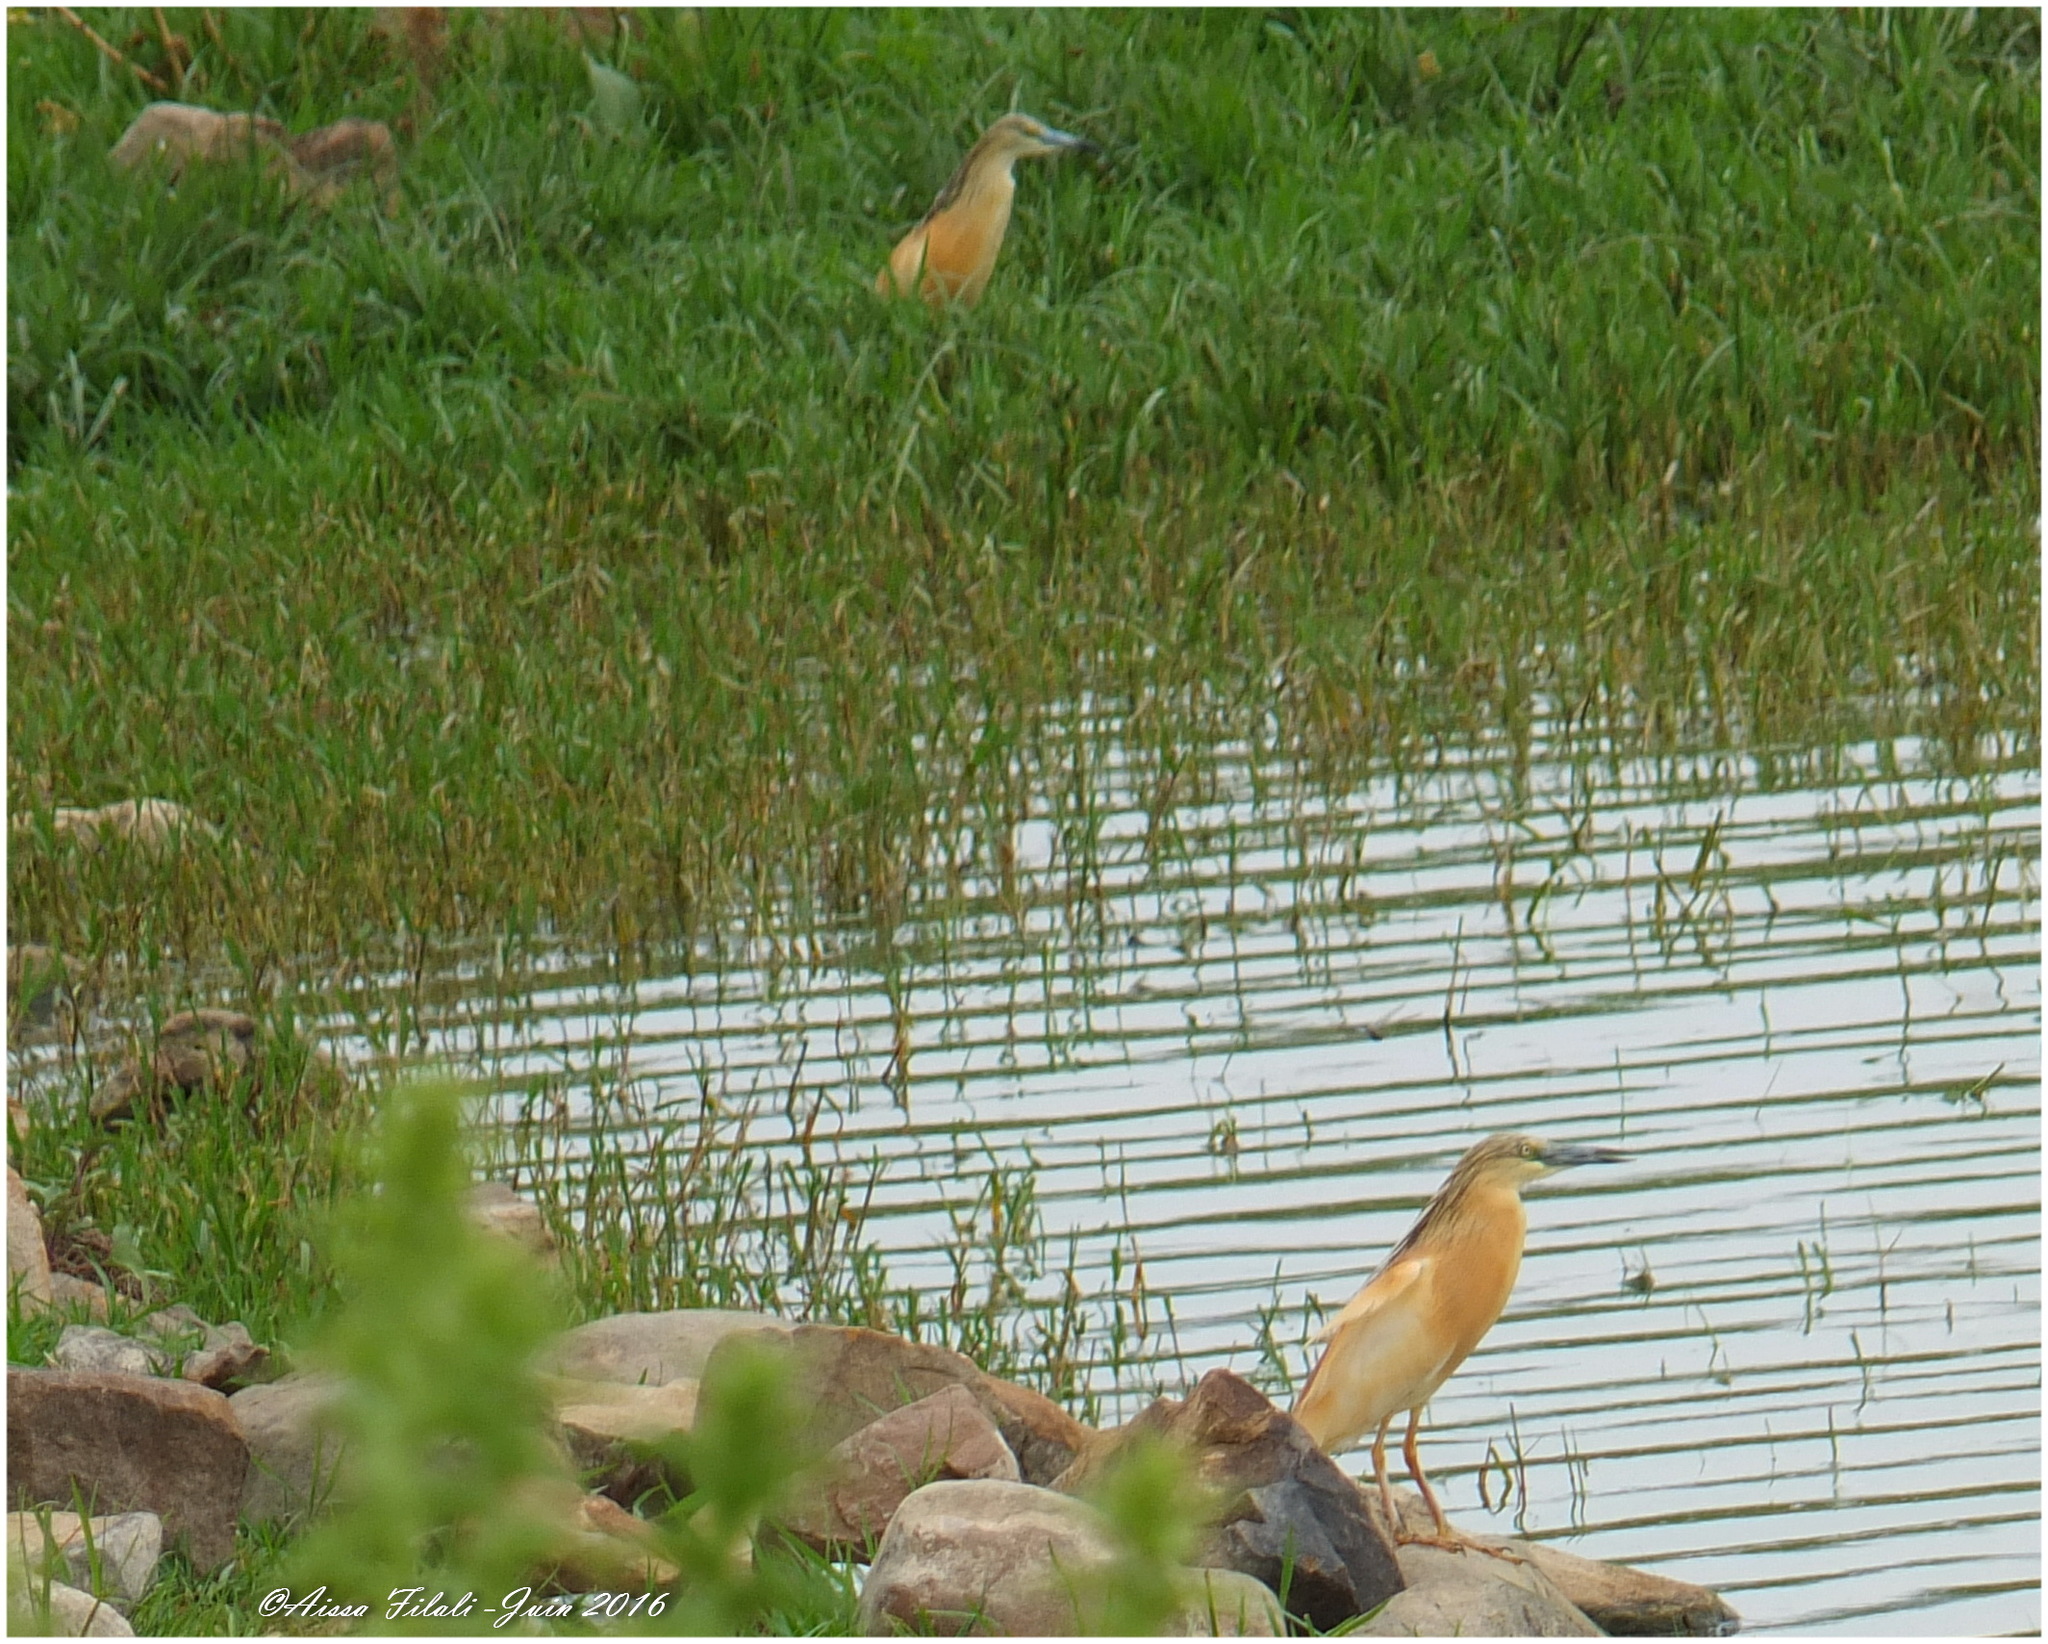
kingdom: Animalia
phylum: Chordata
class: Aves
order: Pelecaniformes
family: Ardeidae
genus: Ardeola
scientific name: Ardeola ralloides
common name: Squacco heron
